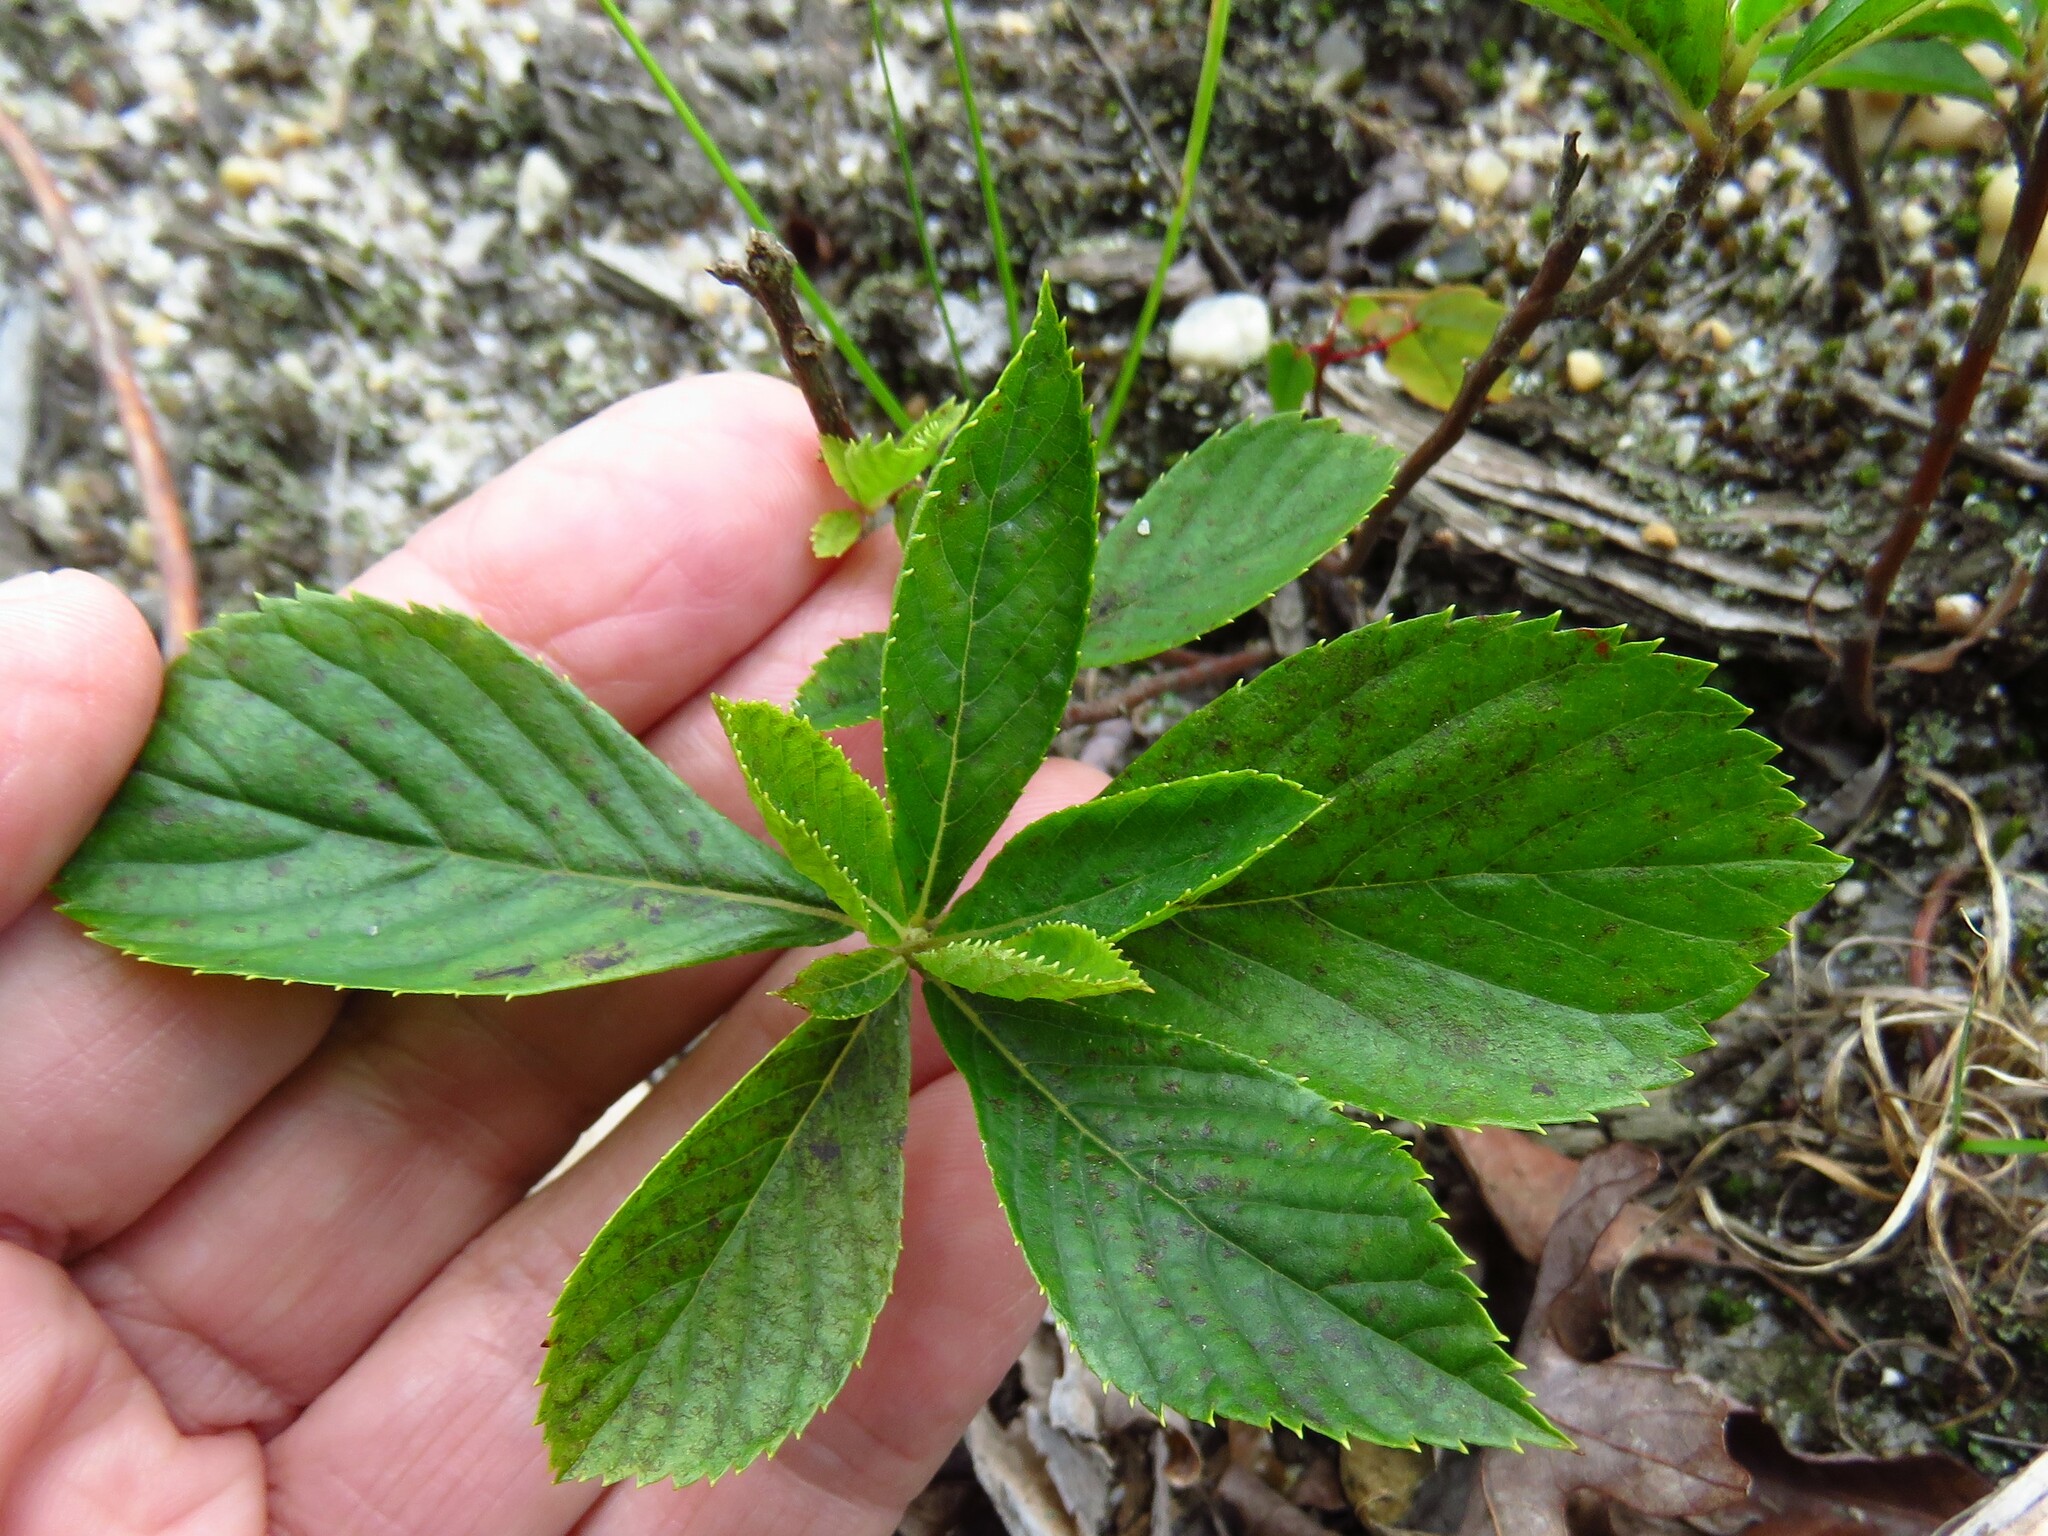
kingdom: Plantae
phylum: Tracheophyta
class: Magnoliopsida
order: Ericales
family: Clethraceae
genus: Clethra
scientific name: Clethra alnifolia
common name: Sweet pepperbush
